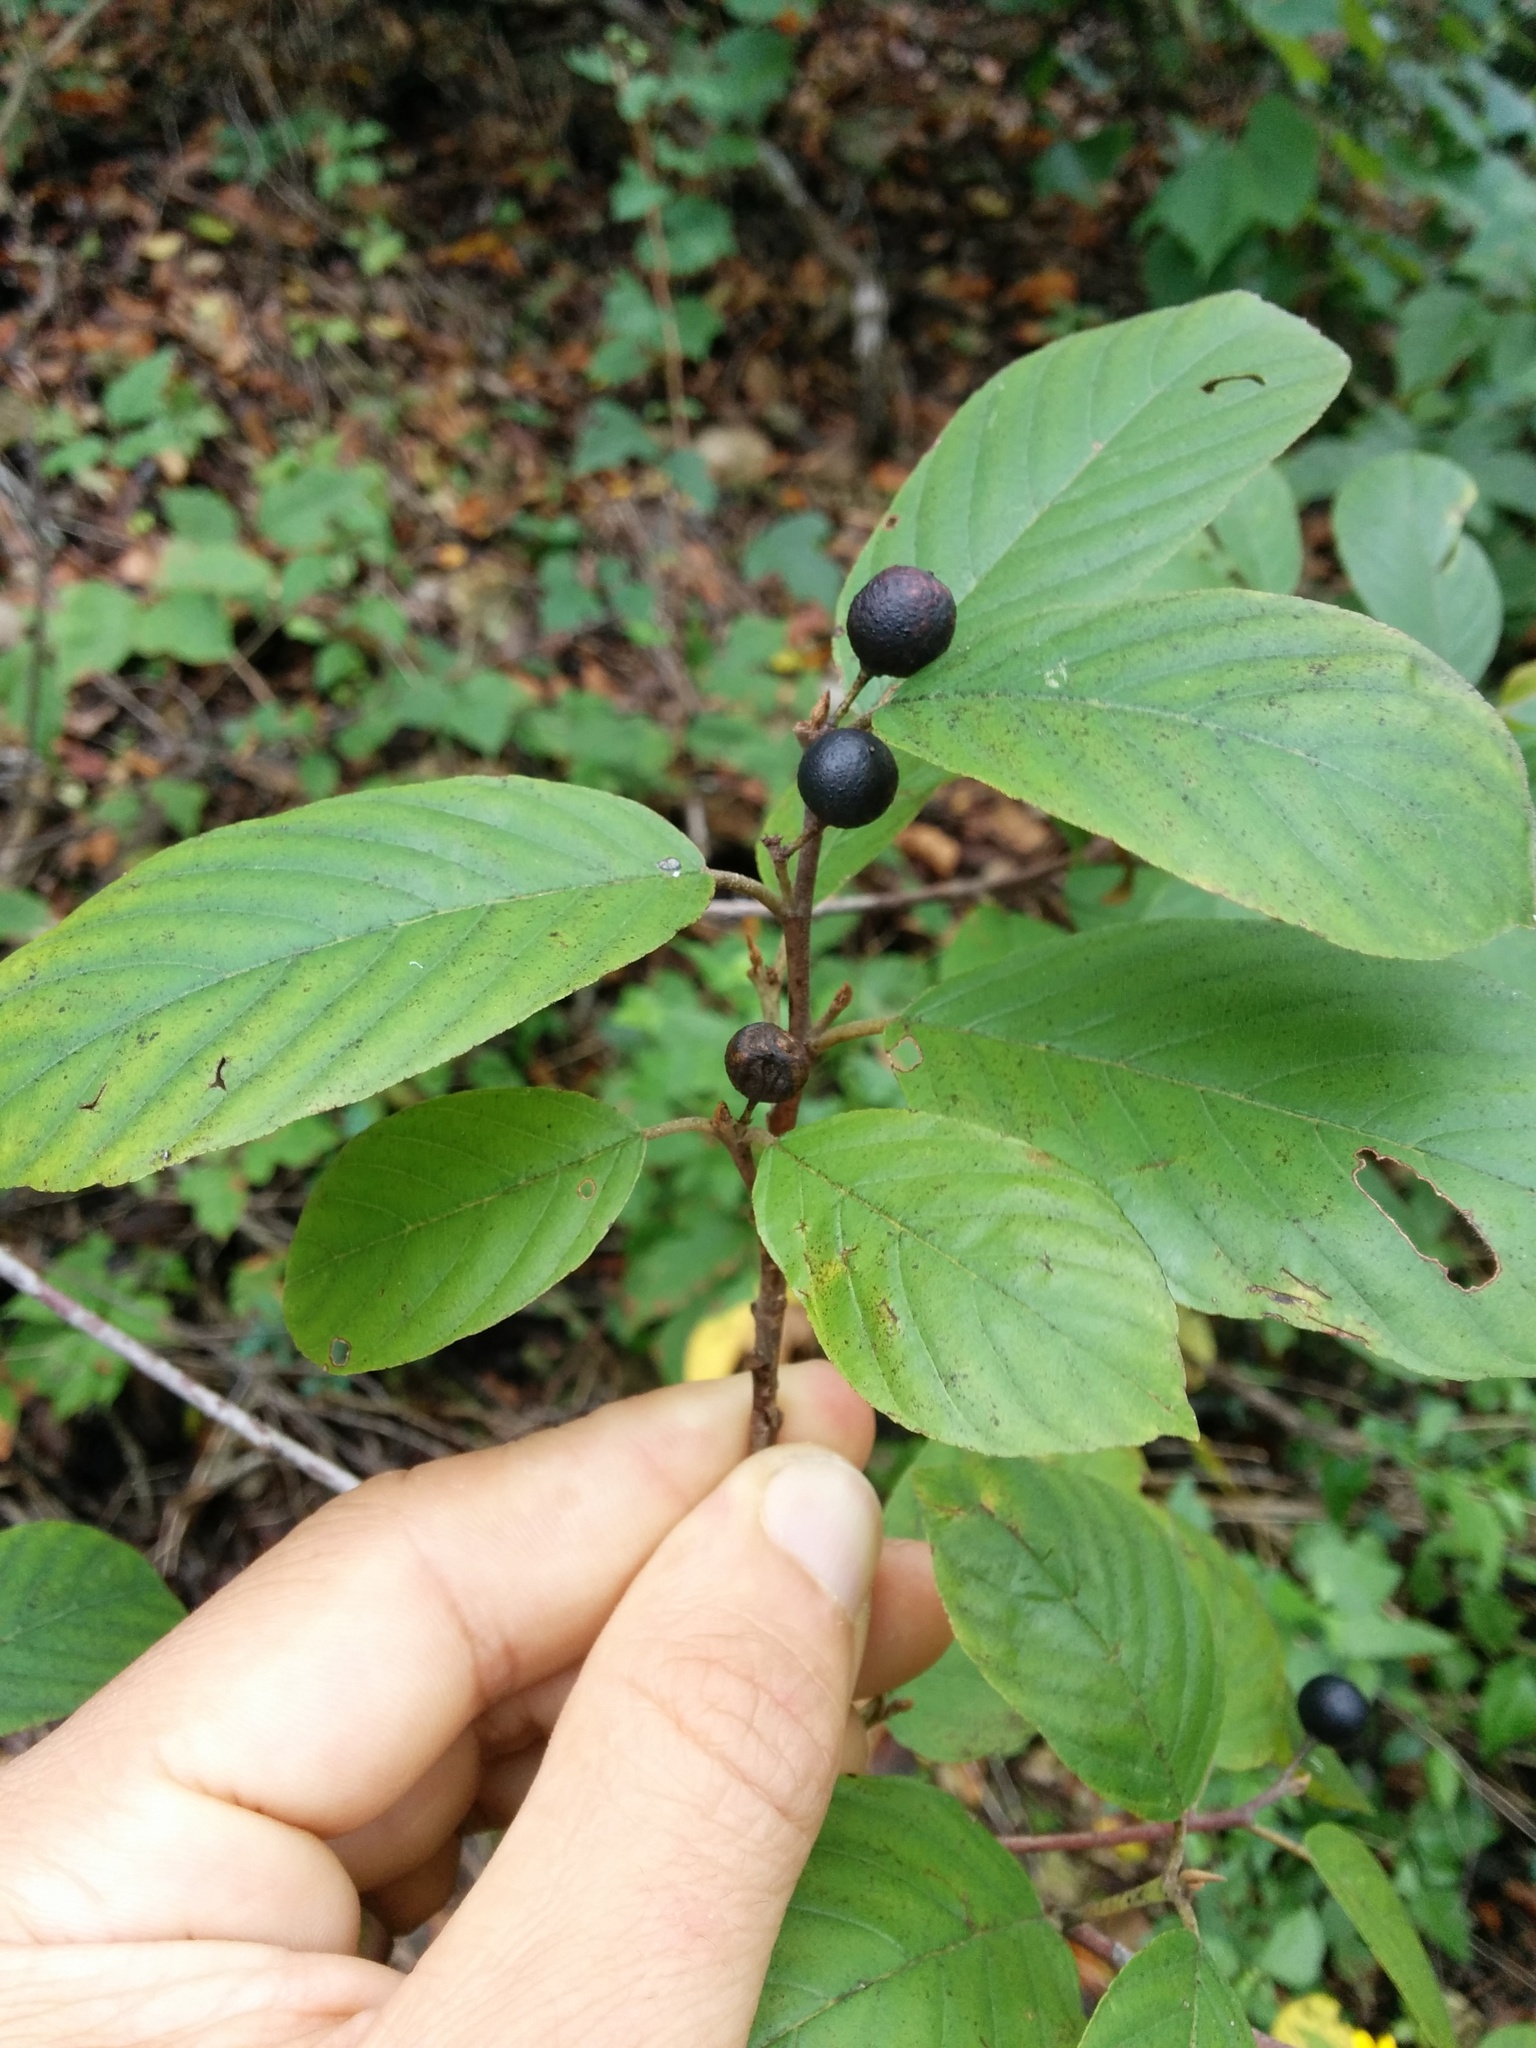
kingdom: Plantae
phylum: Tracheophyta
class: Magnoliopsida
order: Rosales
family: Rhamnaceae
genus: Frangula
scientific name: Frangula caroliniana
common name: Carolina buckthorn
